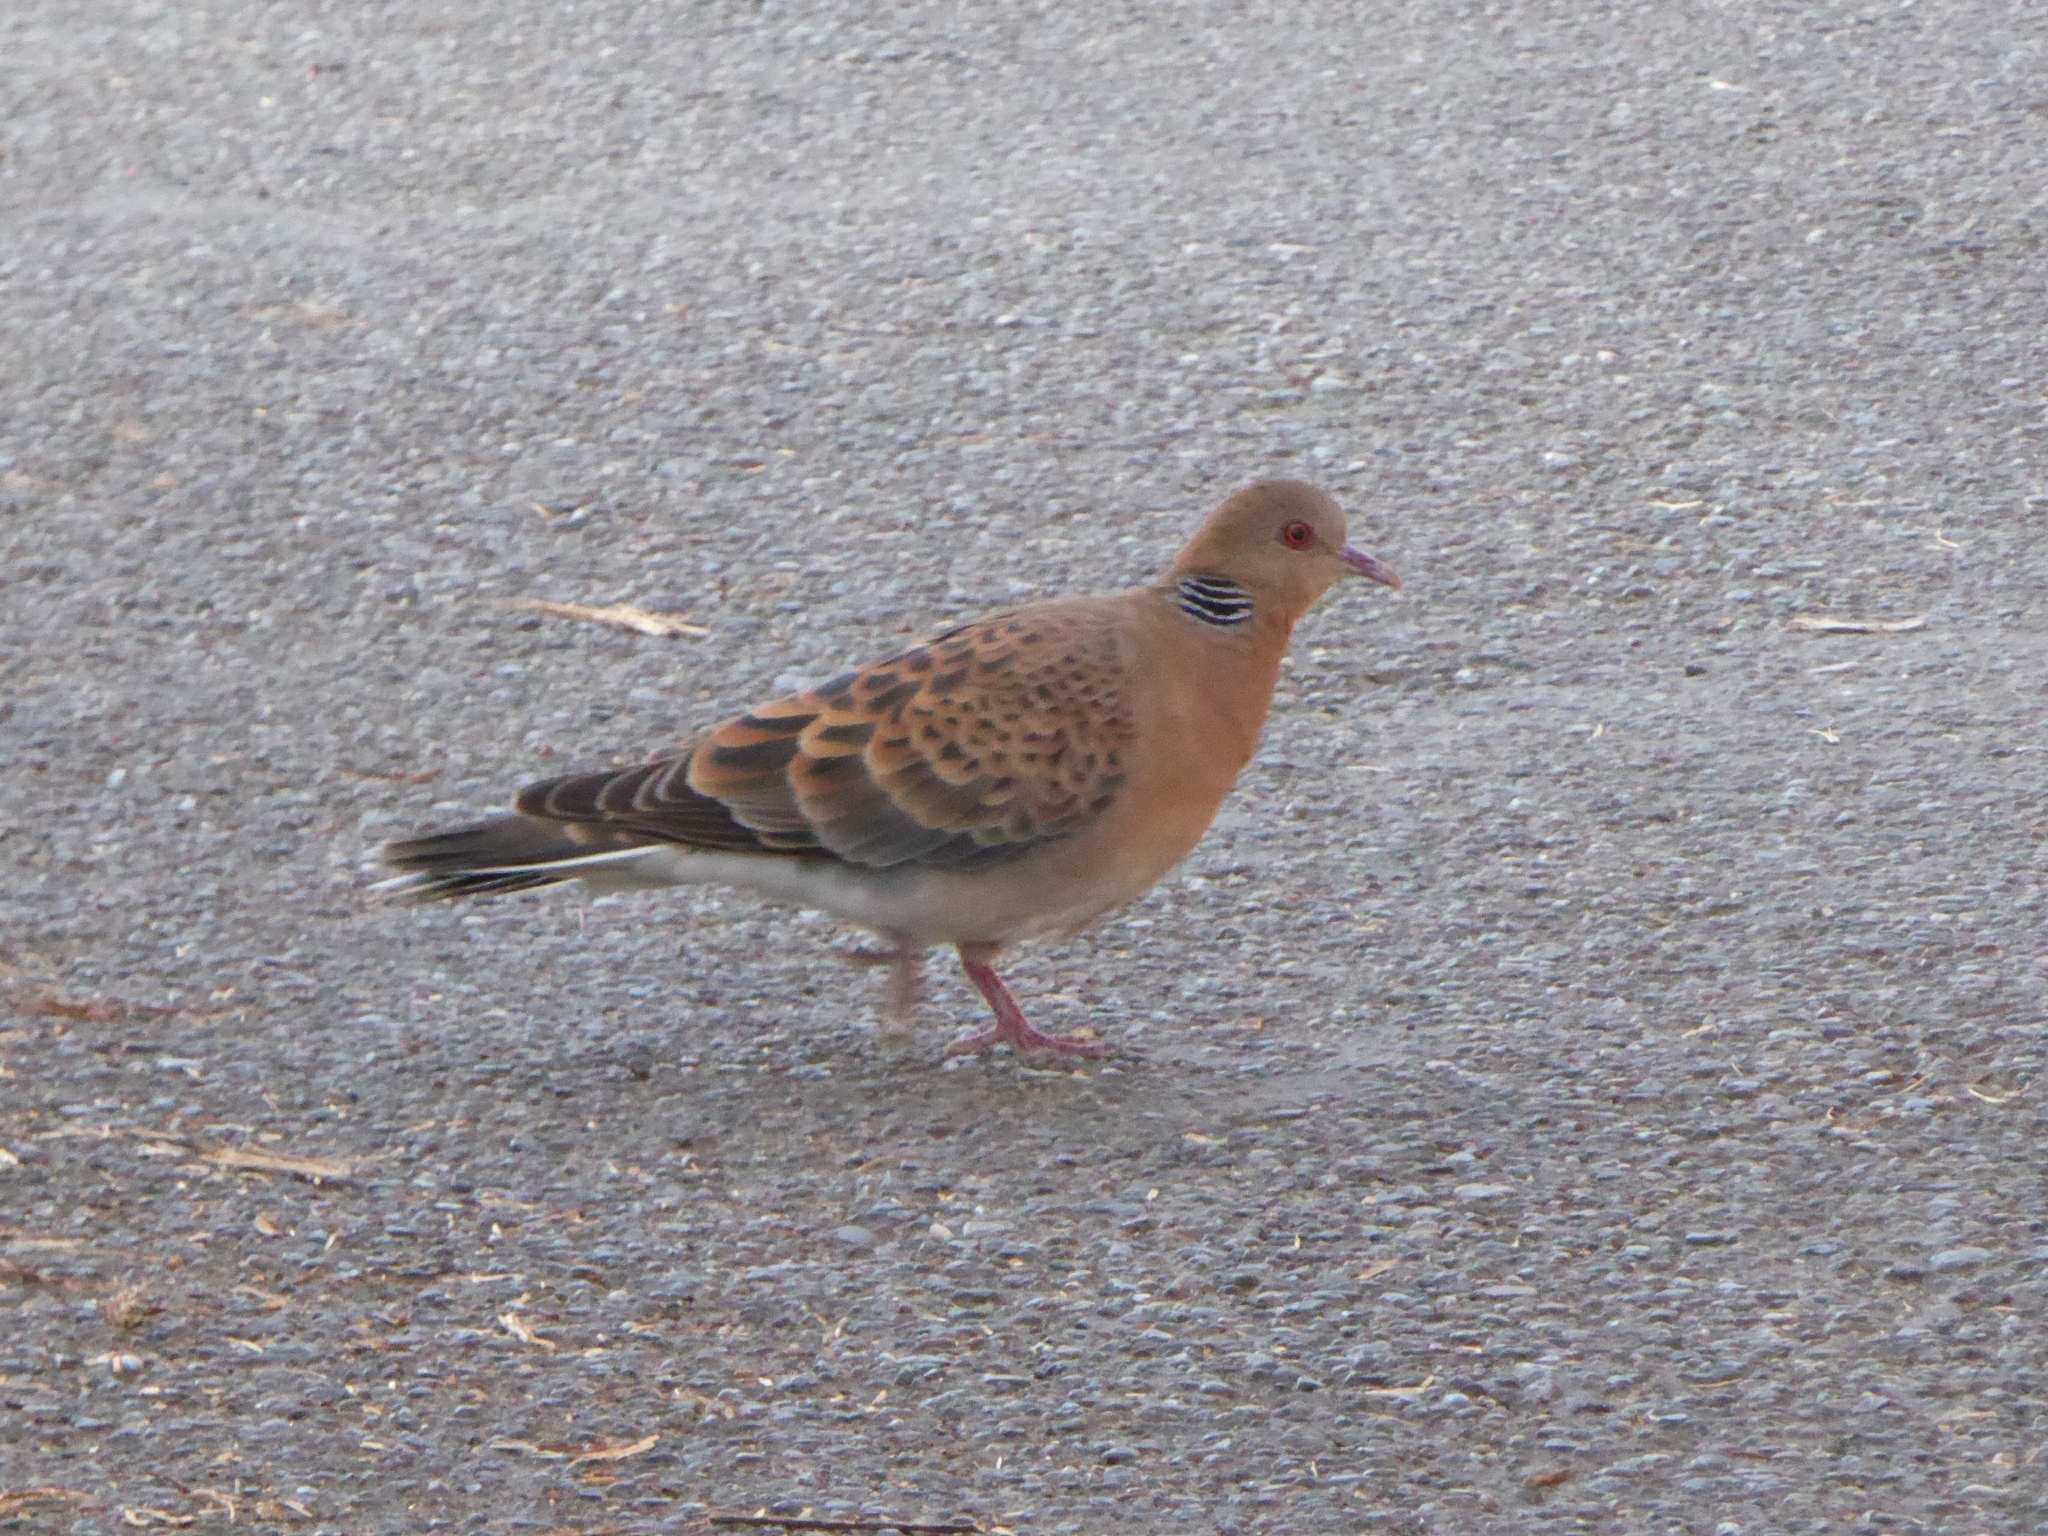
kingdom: Animalia
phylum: Chordata
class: Aves
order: Columbiformes
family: Columbidae
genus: Streptopelia
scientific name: Streptopelia orientalis
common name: Oriental turtle dove
